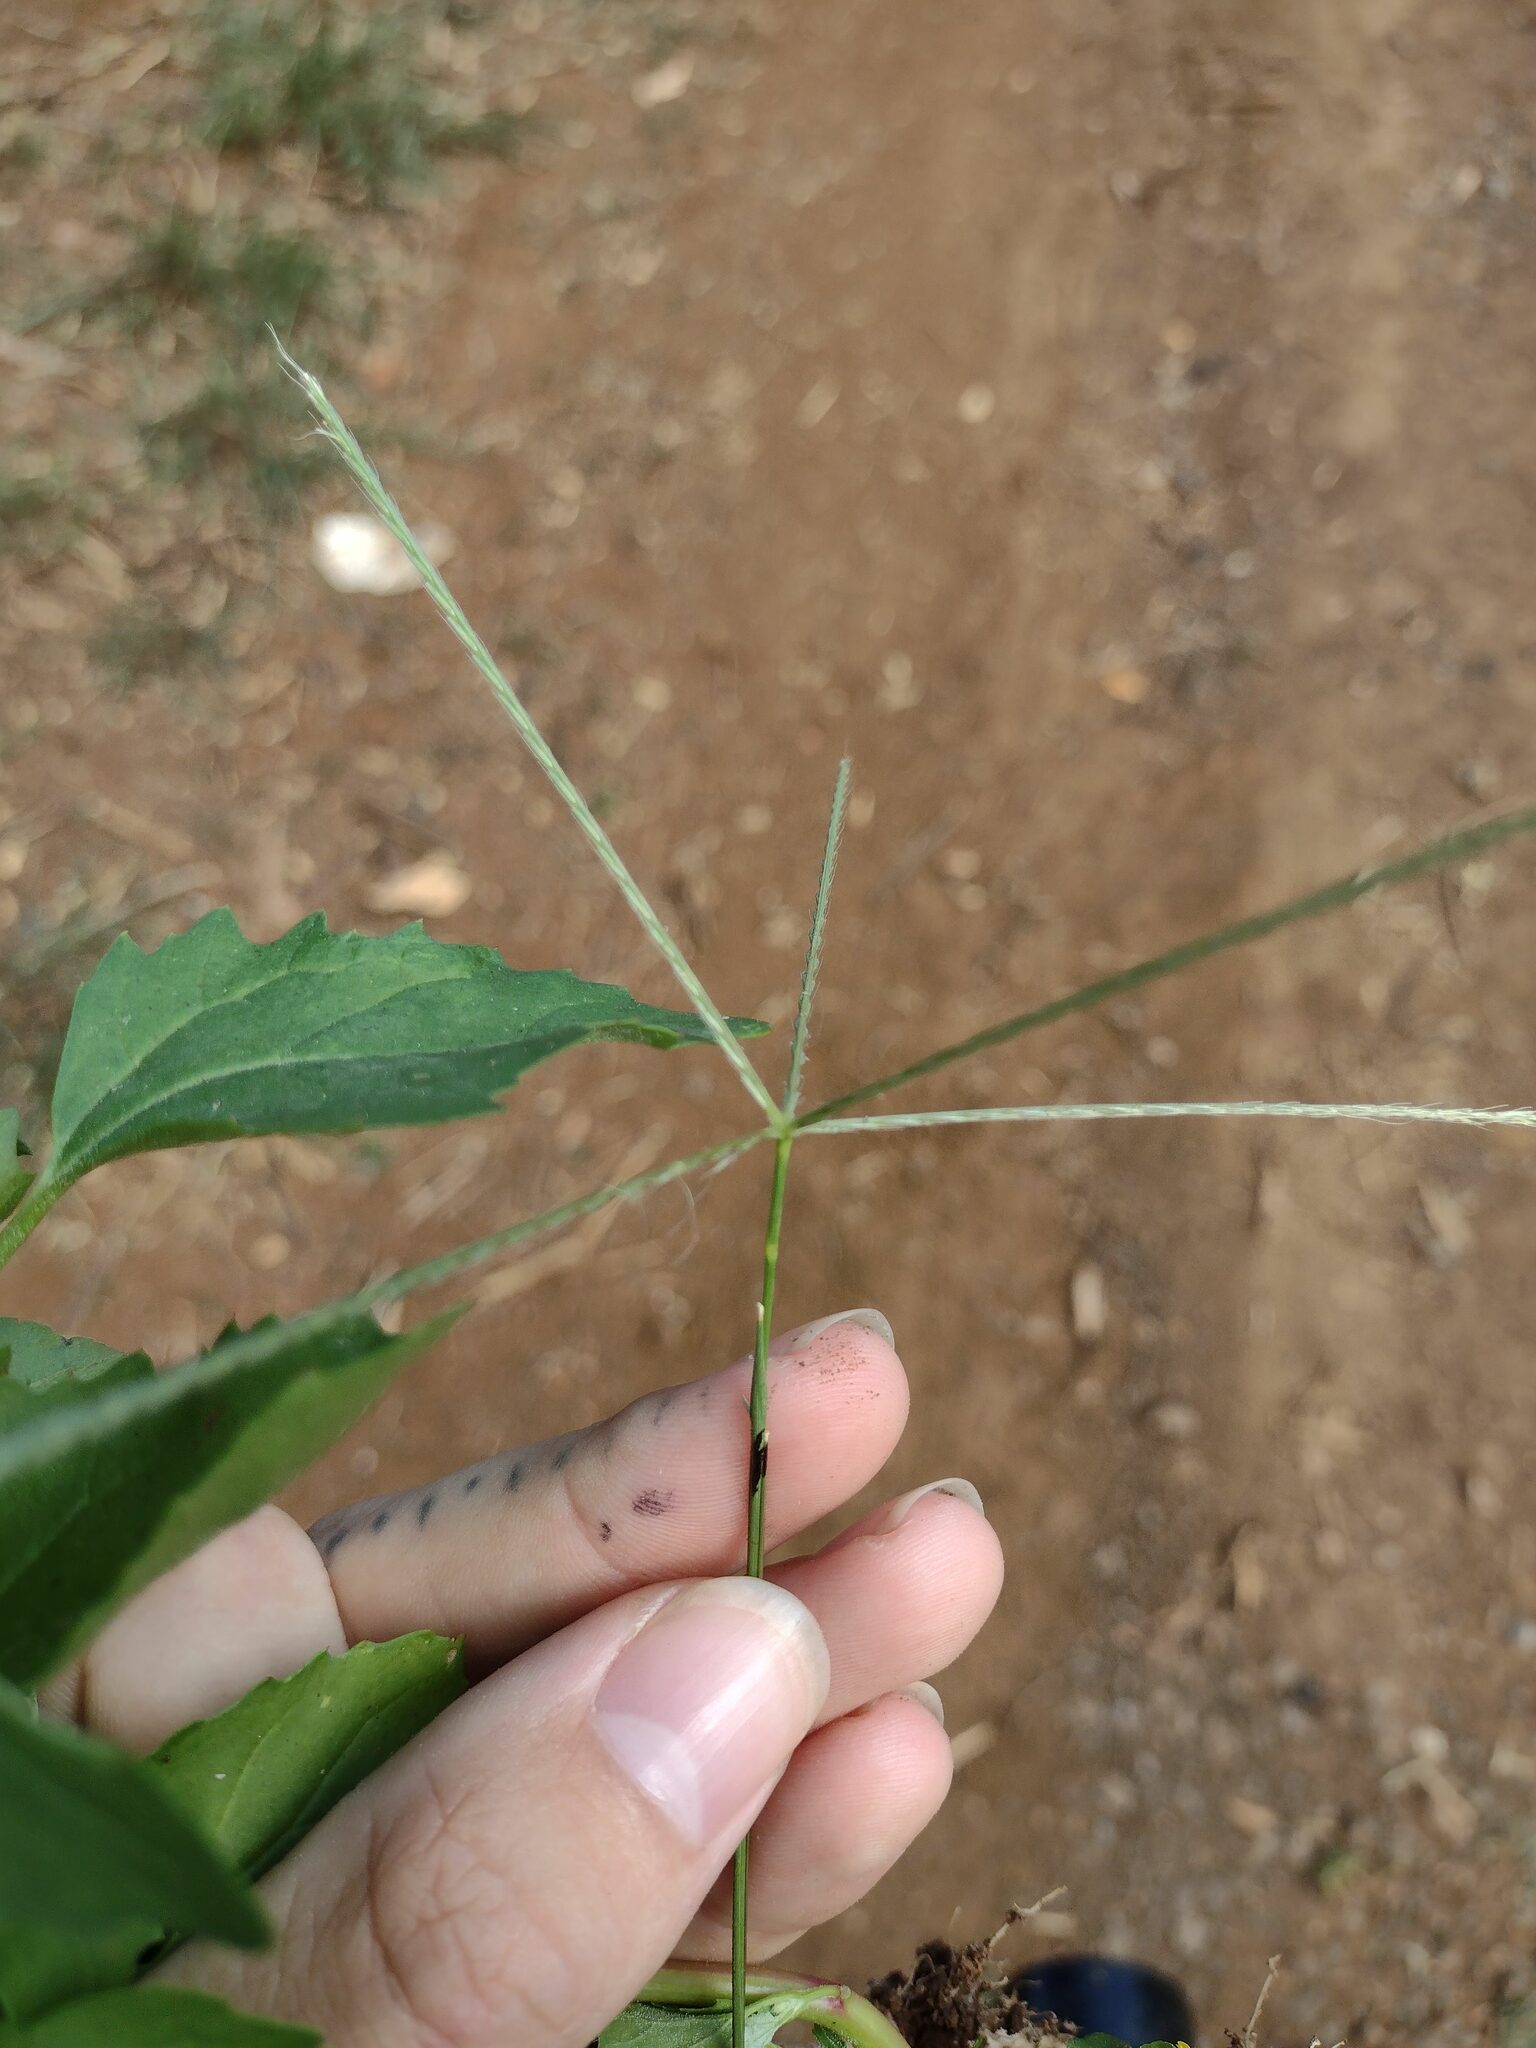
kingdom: Plantae
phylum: Tracheophyta
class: Liliopsida
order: Poales
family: Poaceae
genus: Chloris
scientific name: Chloris divaricata
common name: Spreading windmill grass
